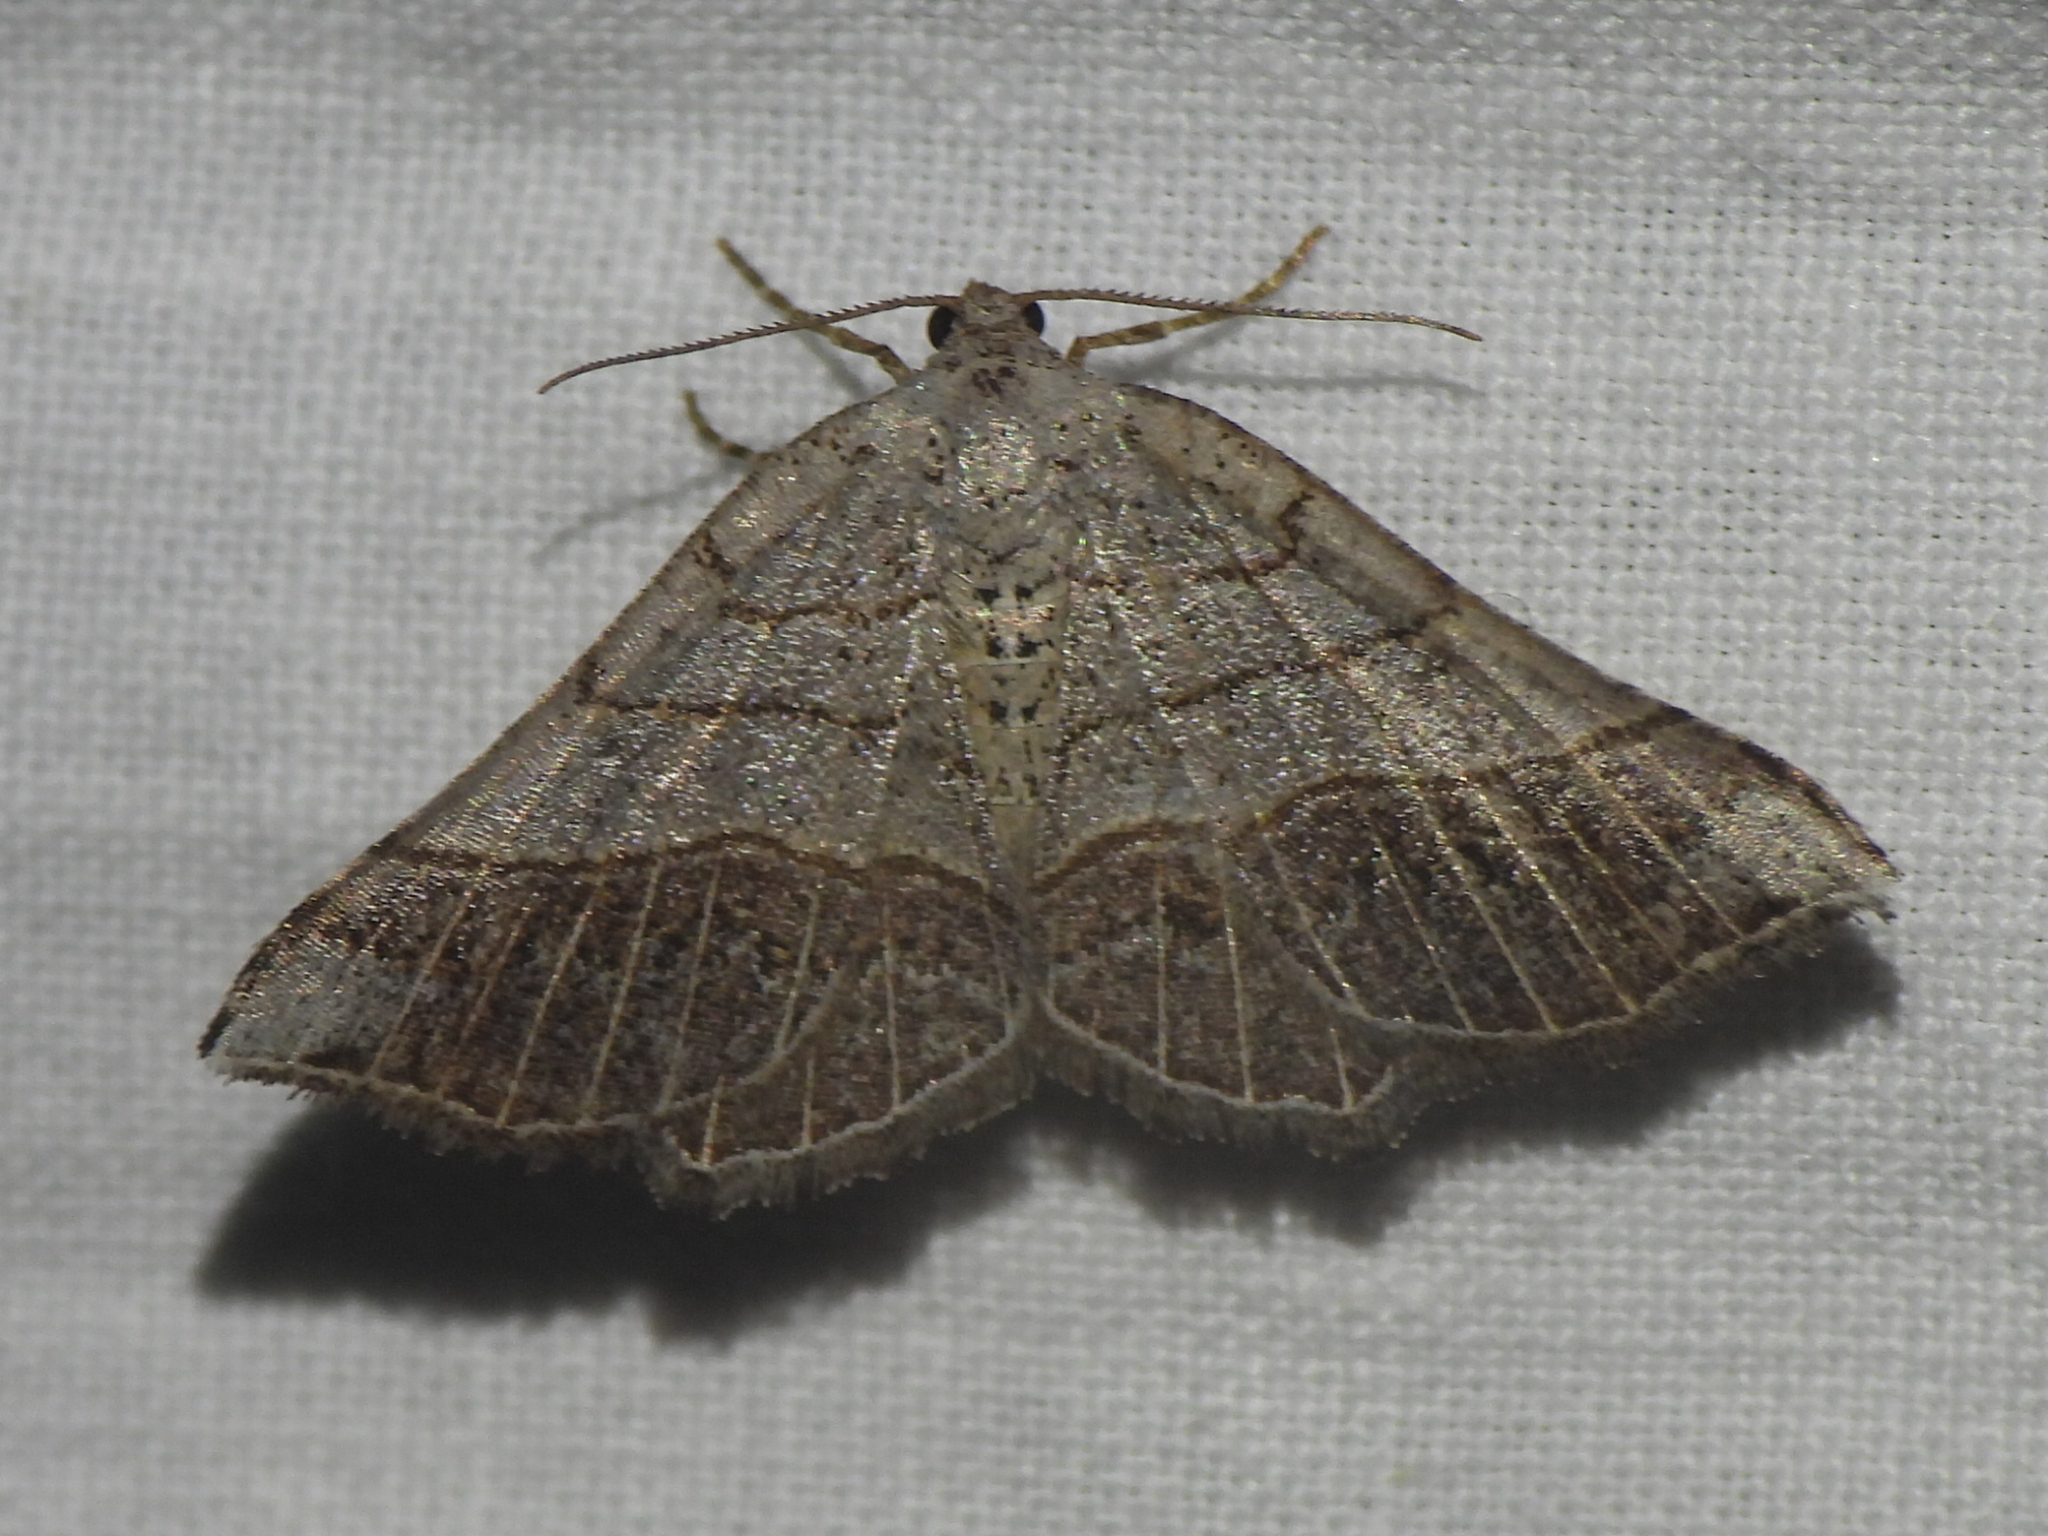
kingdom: Animalia
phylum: Arthropoda
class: Insecta
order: Lepidoptera
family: Geometridae
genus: Eumacaria
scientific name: Eumacaria madopata
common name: Brown-bordered geometer
